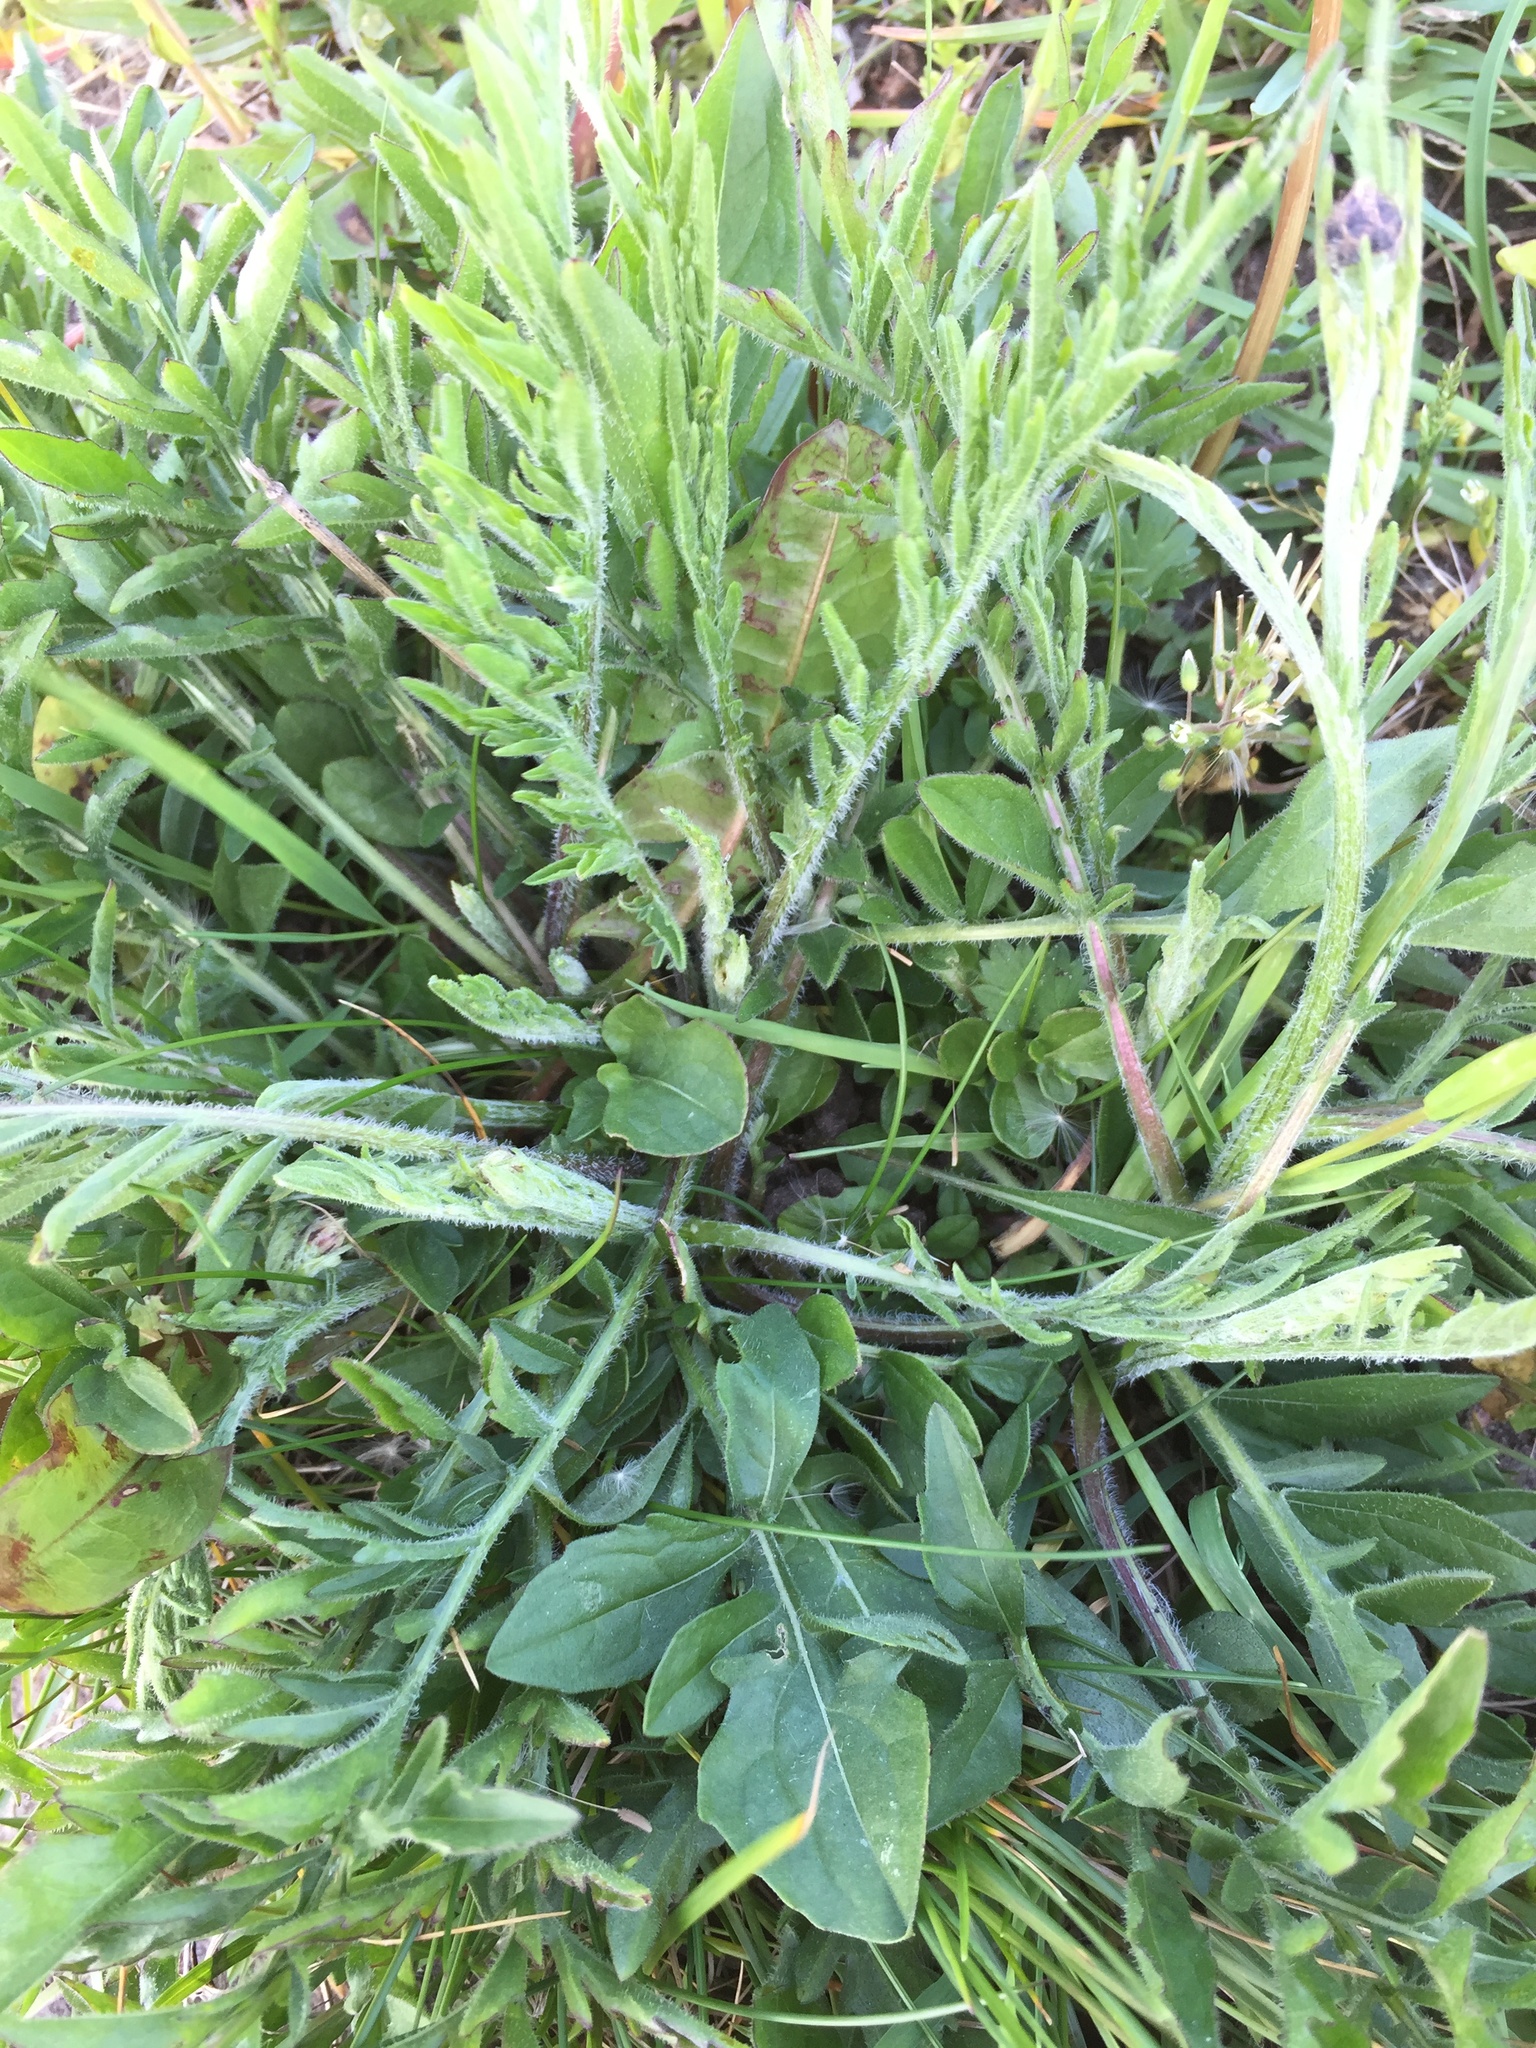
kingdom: Plantae
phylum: Tracheophyta
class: Magnoliopsida
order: Asterales
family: Asteraceae
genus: Centaurea
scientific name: Centaurea scabiosa
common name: Greater knapweed
